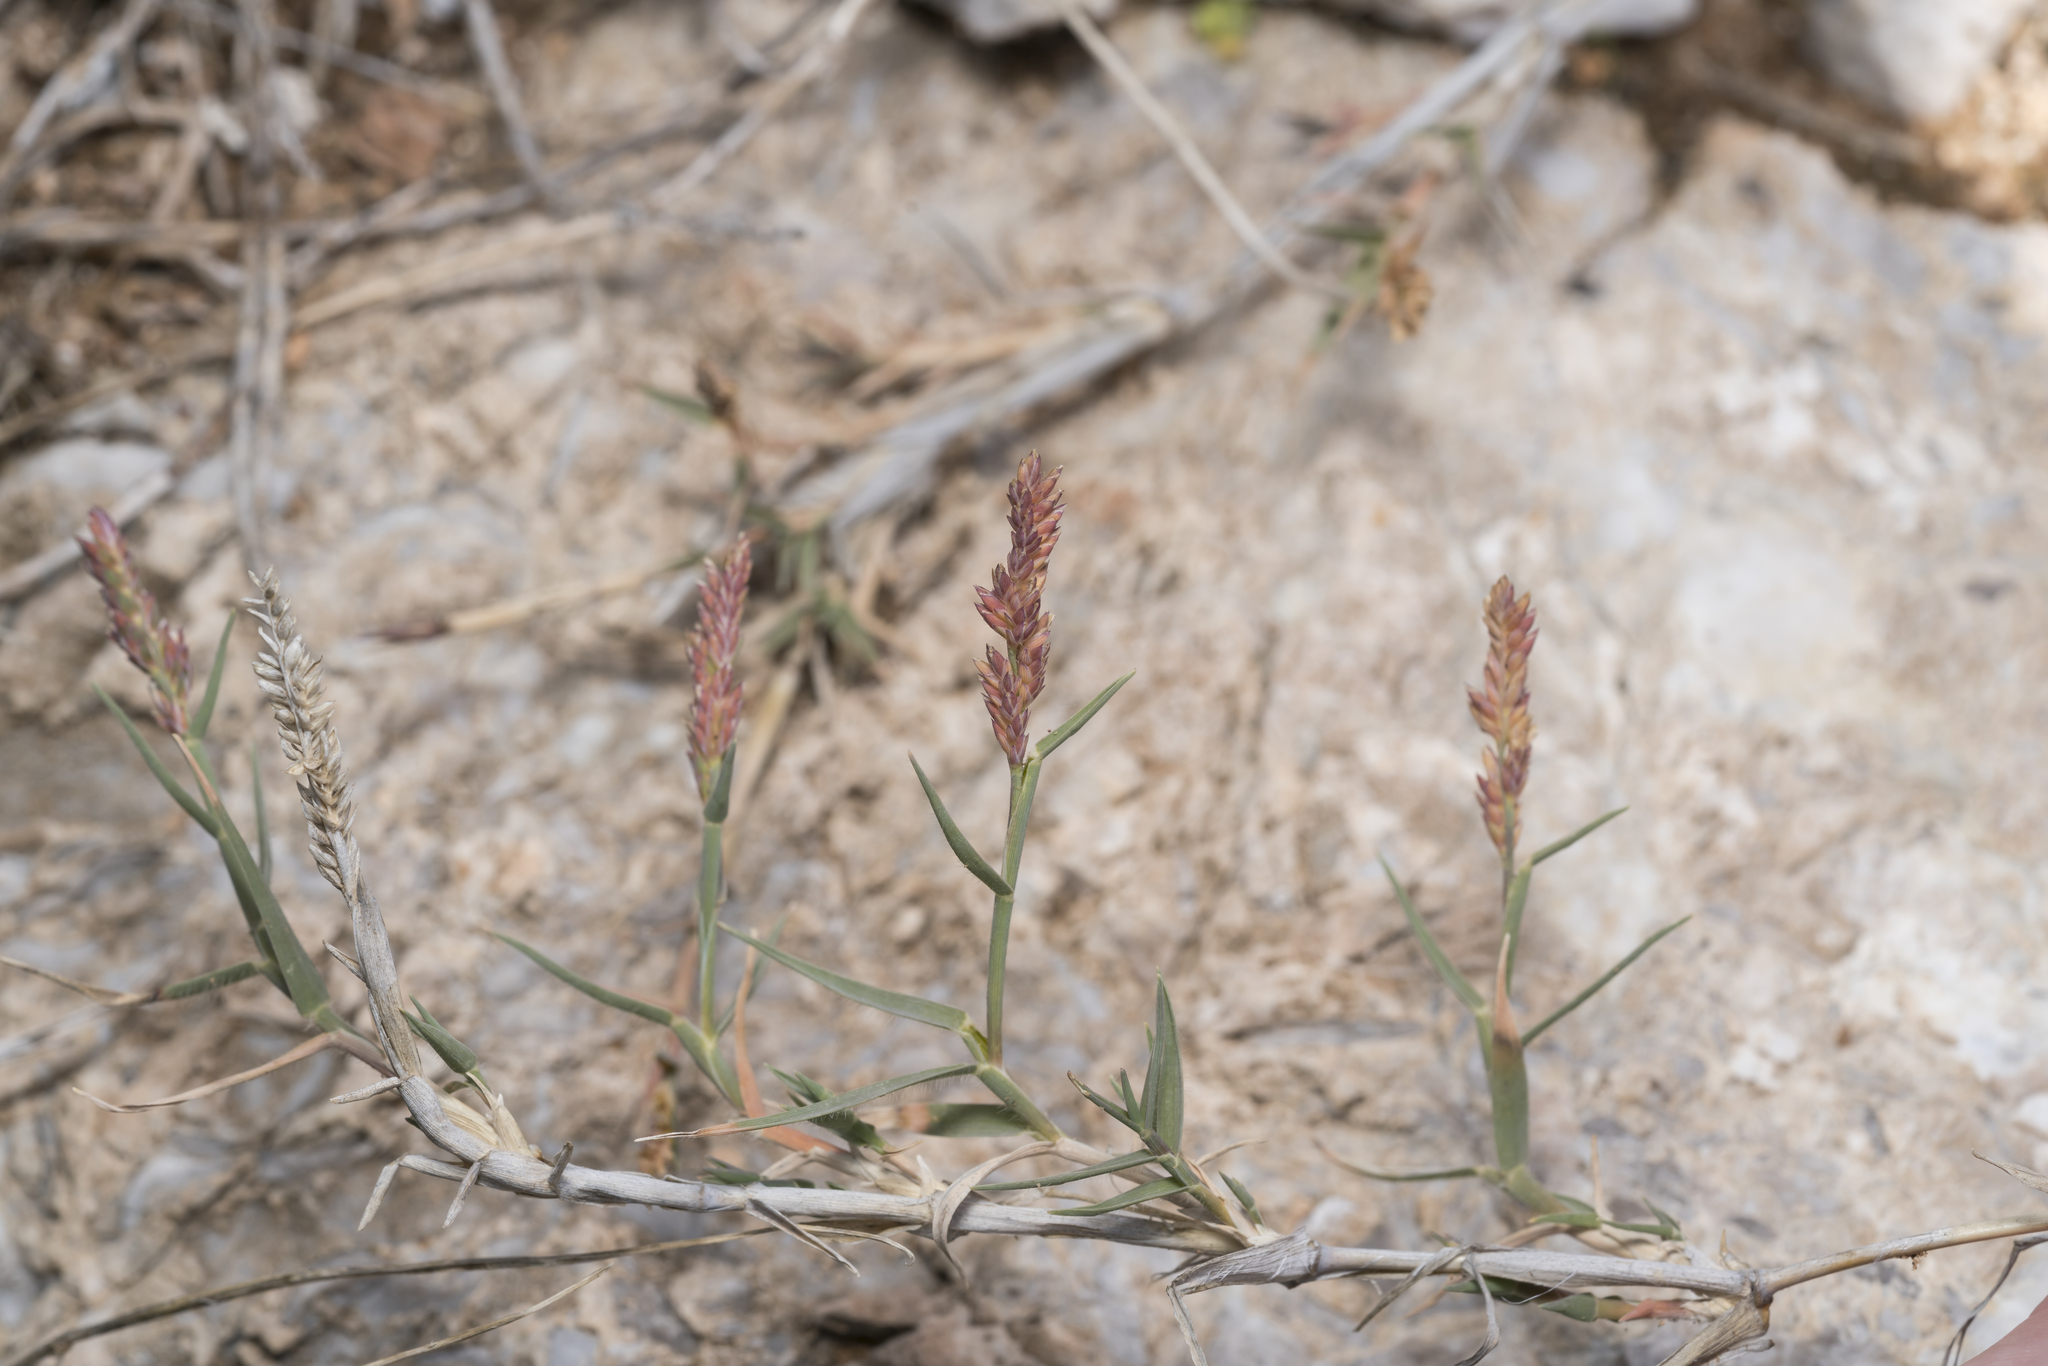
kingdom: Plantae
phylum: Tracheophyta
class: Liliopsida
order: Poales
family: Poaceae
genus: Aeluropus
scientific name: Aeluropus littoralis
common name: Indian walnut
